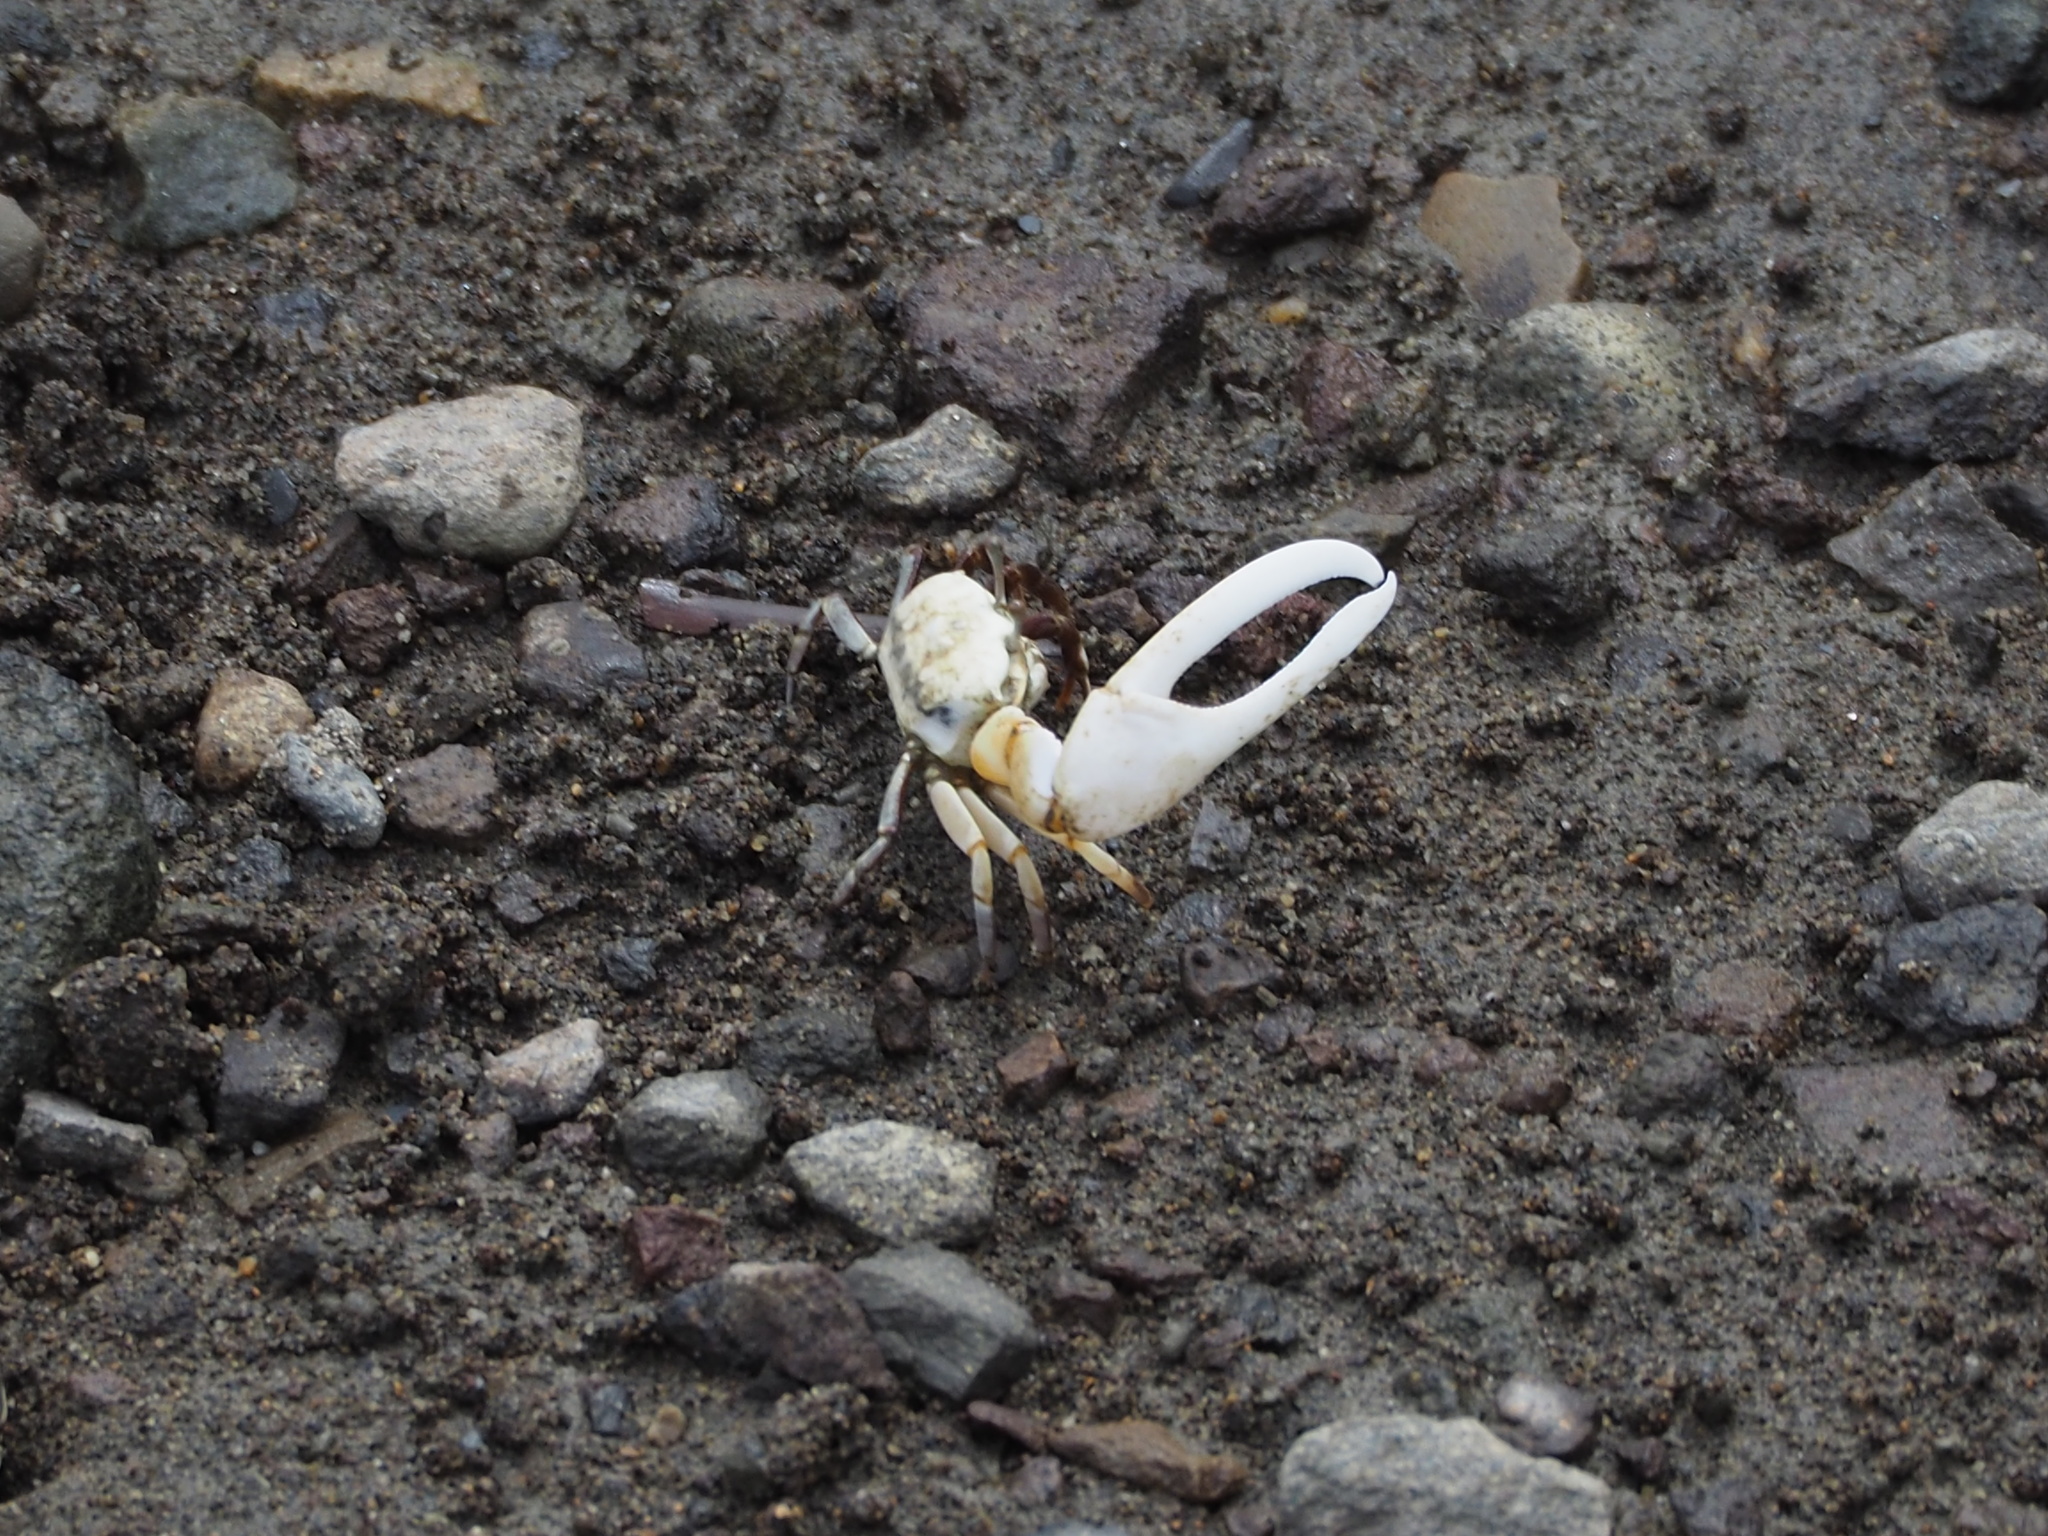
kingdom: Animalia
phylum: Arthropoda
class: Malacostraca
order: Decapoda
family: Ocypodidae
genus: Austruca
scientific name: Austruca lactea
